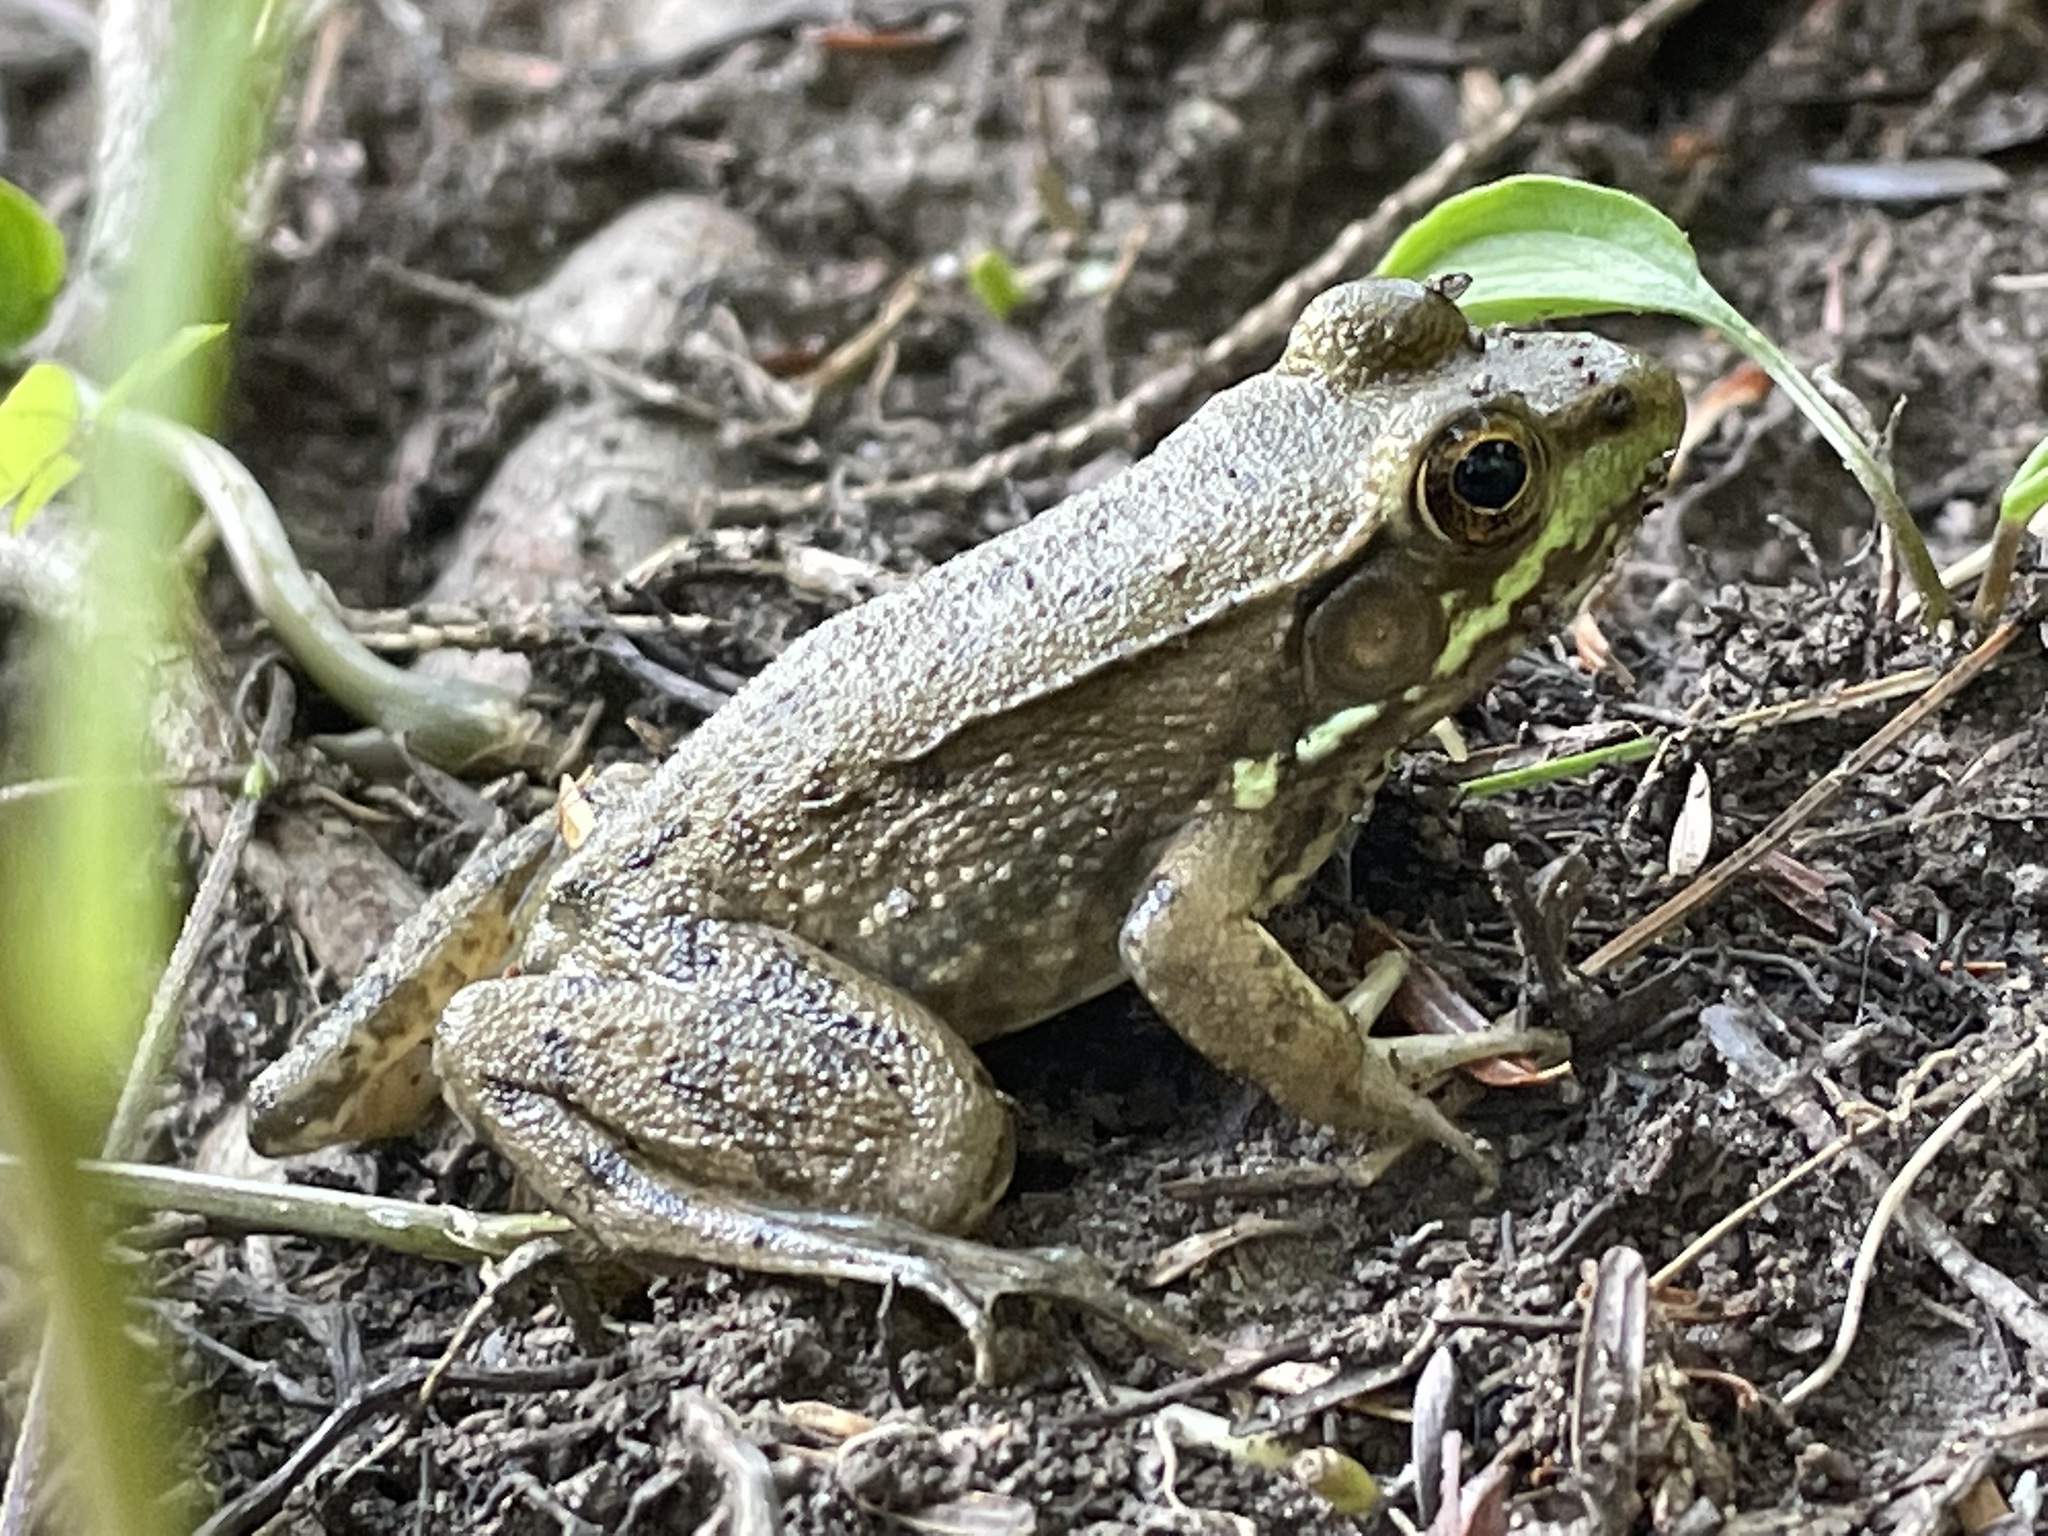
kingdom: Animalia
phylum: Chordata
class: Amphibia
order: Anura
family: Ranidae
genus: Lithobates
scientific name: Lithobates clamitans
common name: Green frog
